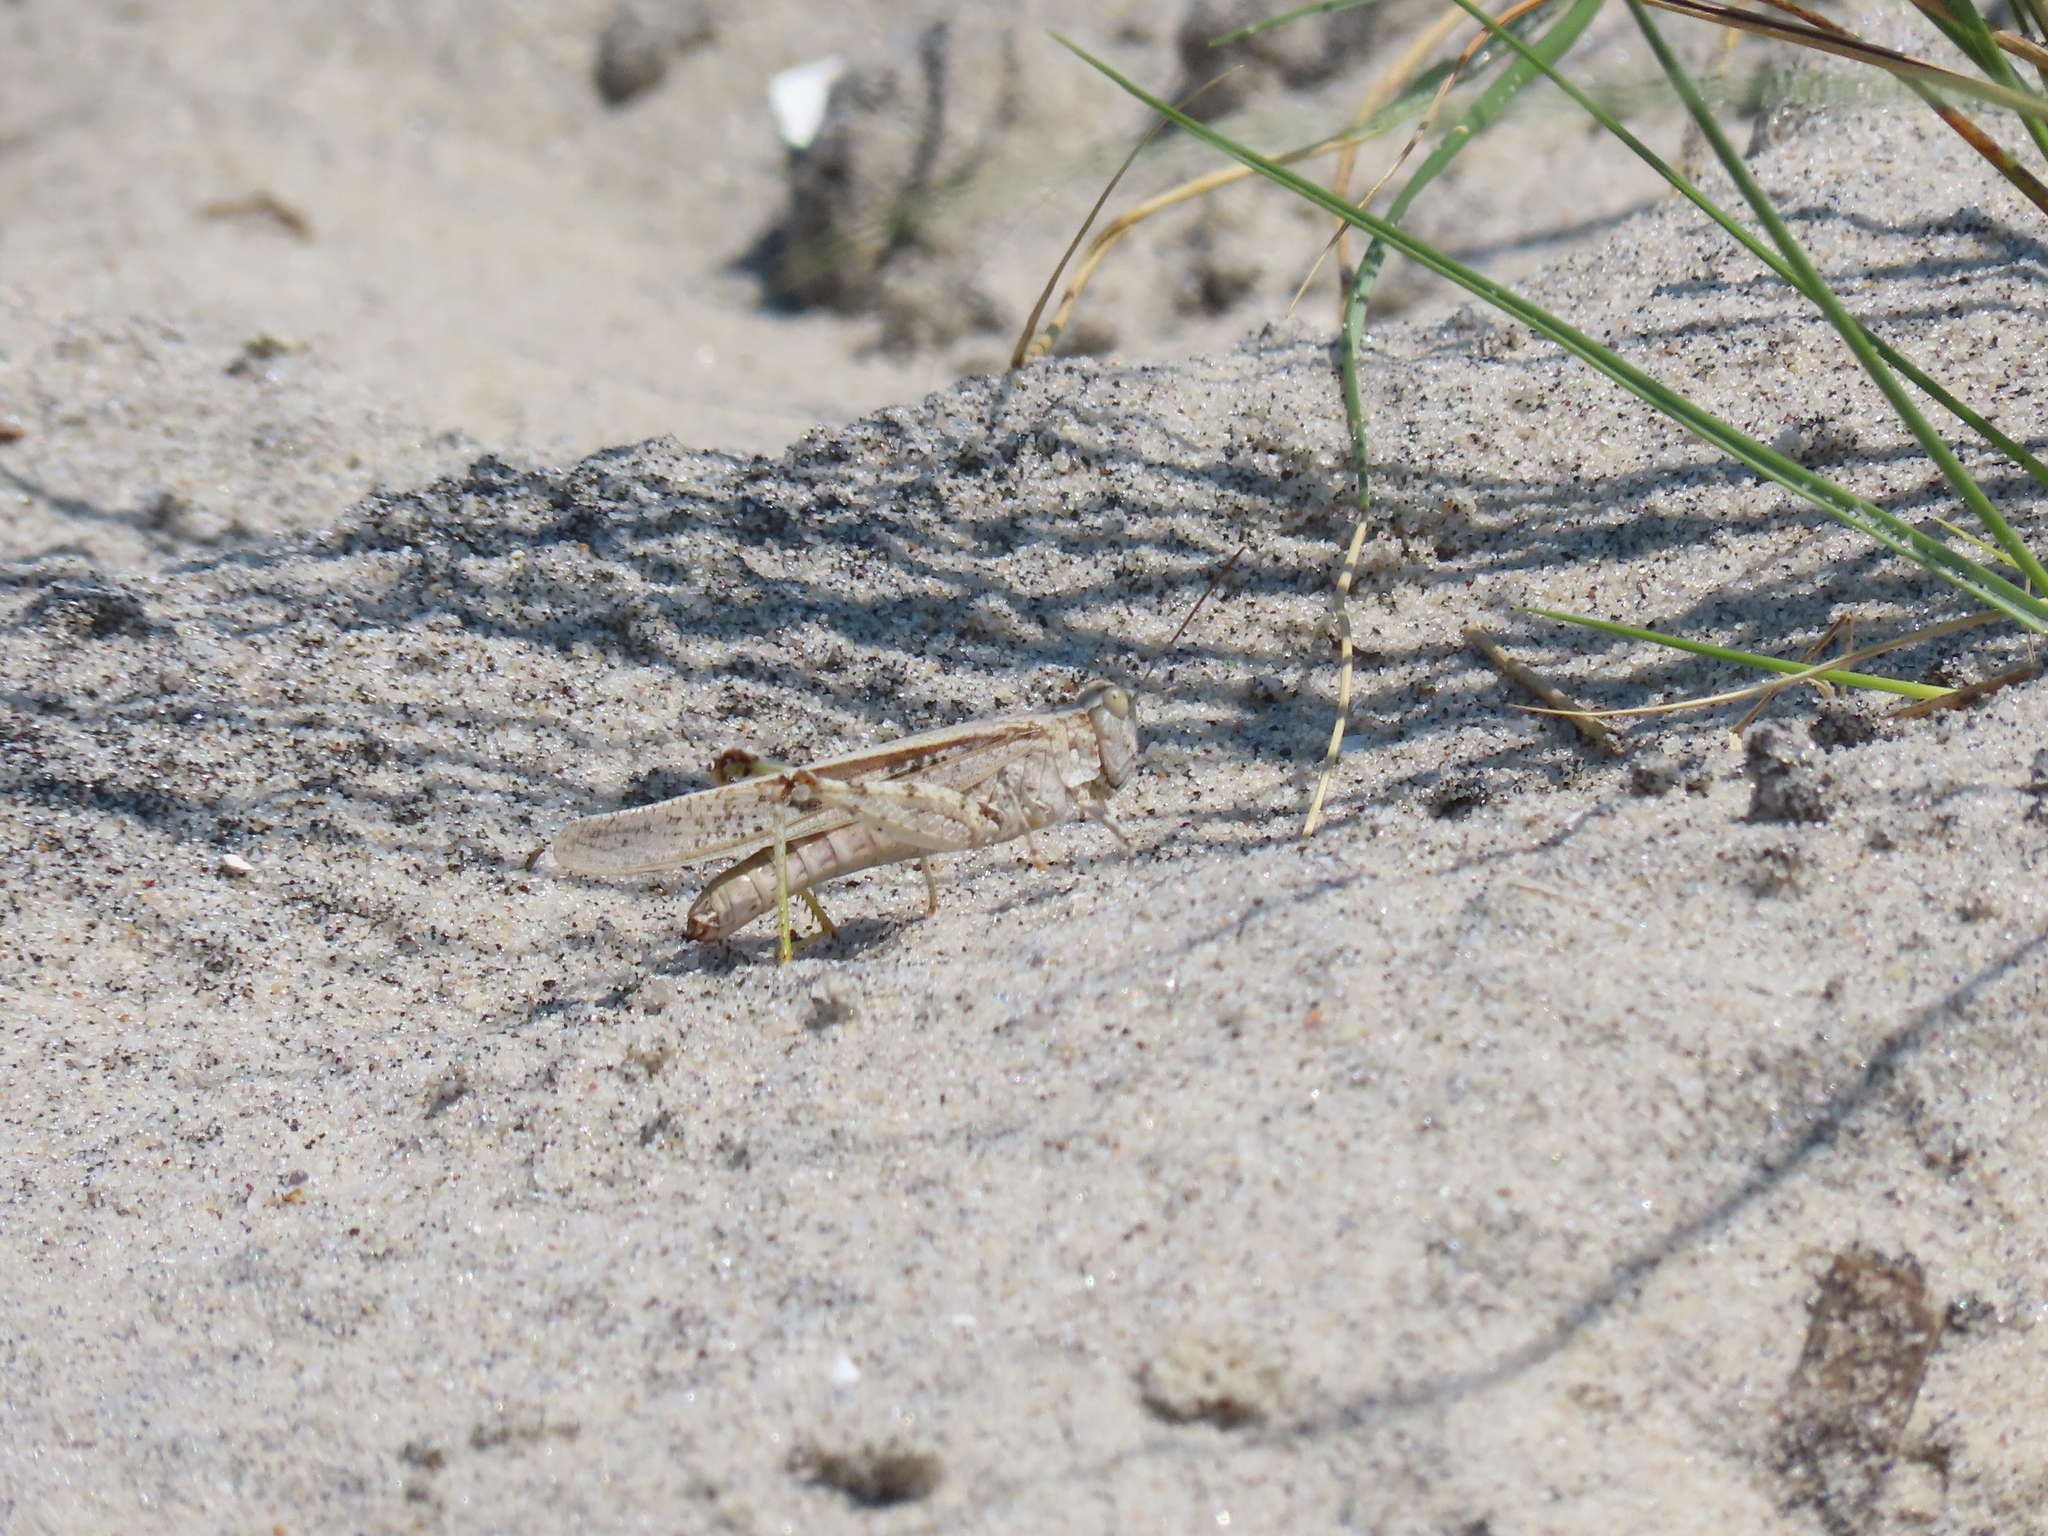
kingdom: Animalia
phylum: Arthropoda
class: Insecta
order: Orthoptera
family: Acrididae
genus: Trimerotropis
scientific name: Trimerotropis maritima
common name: Seaside locust
